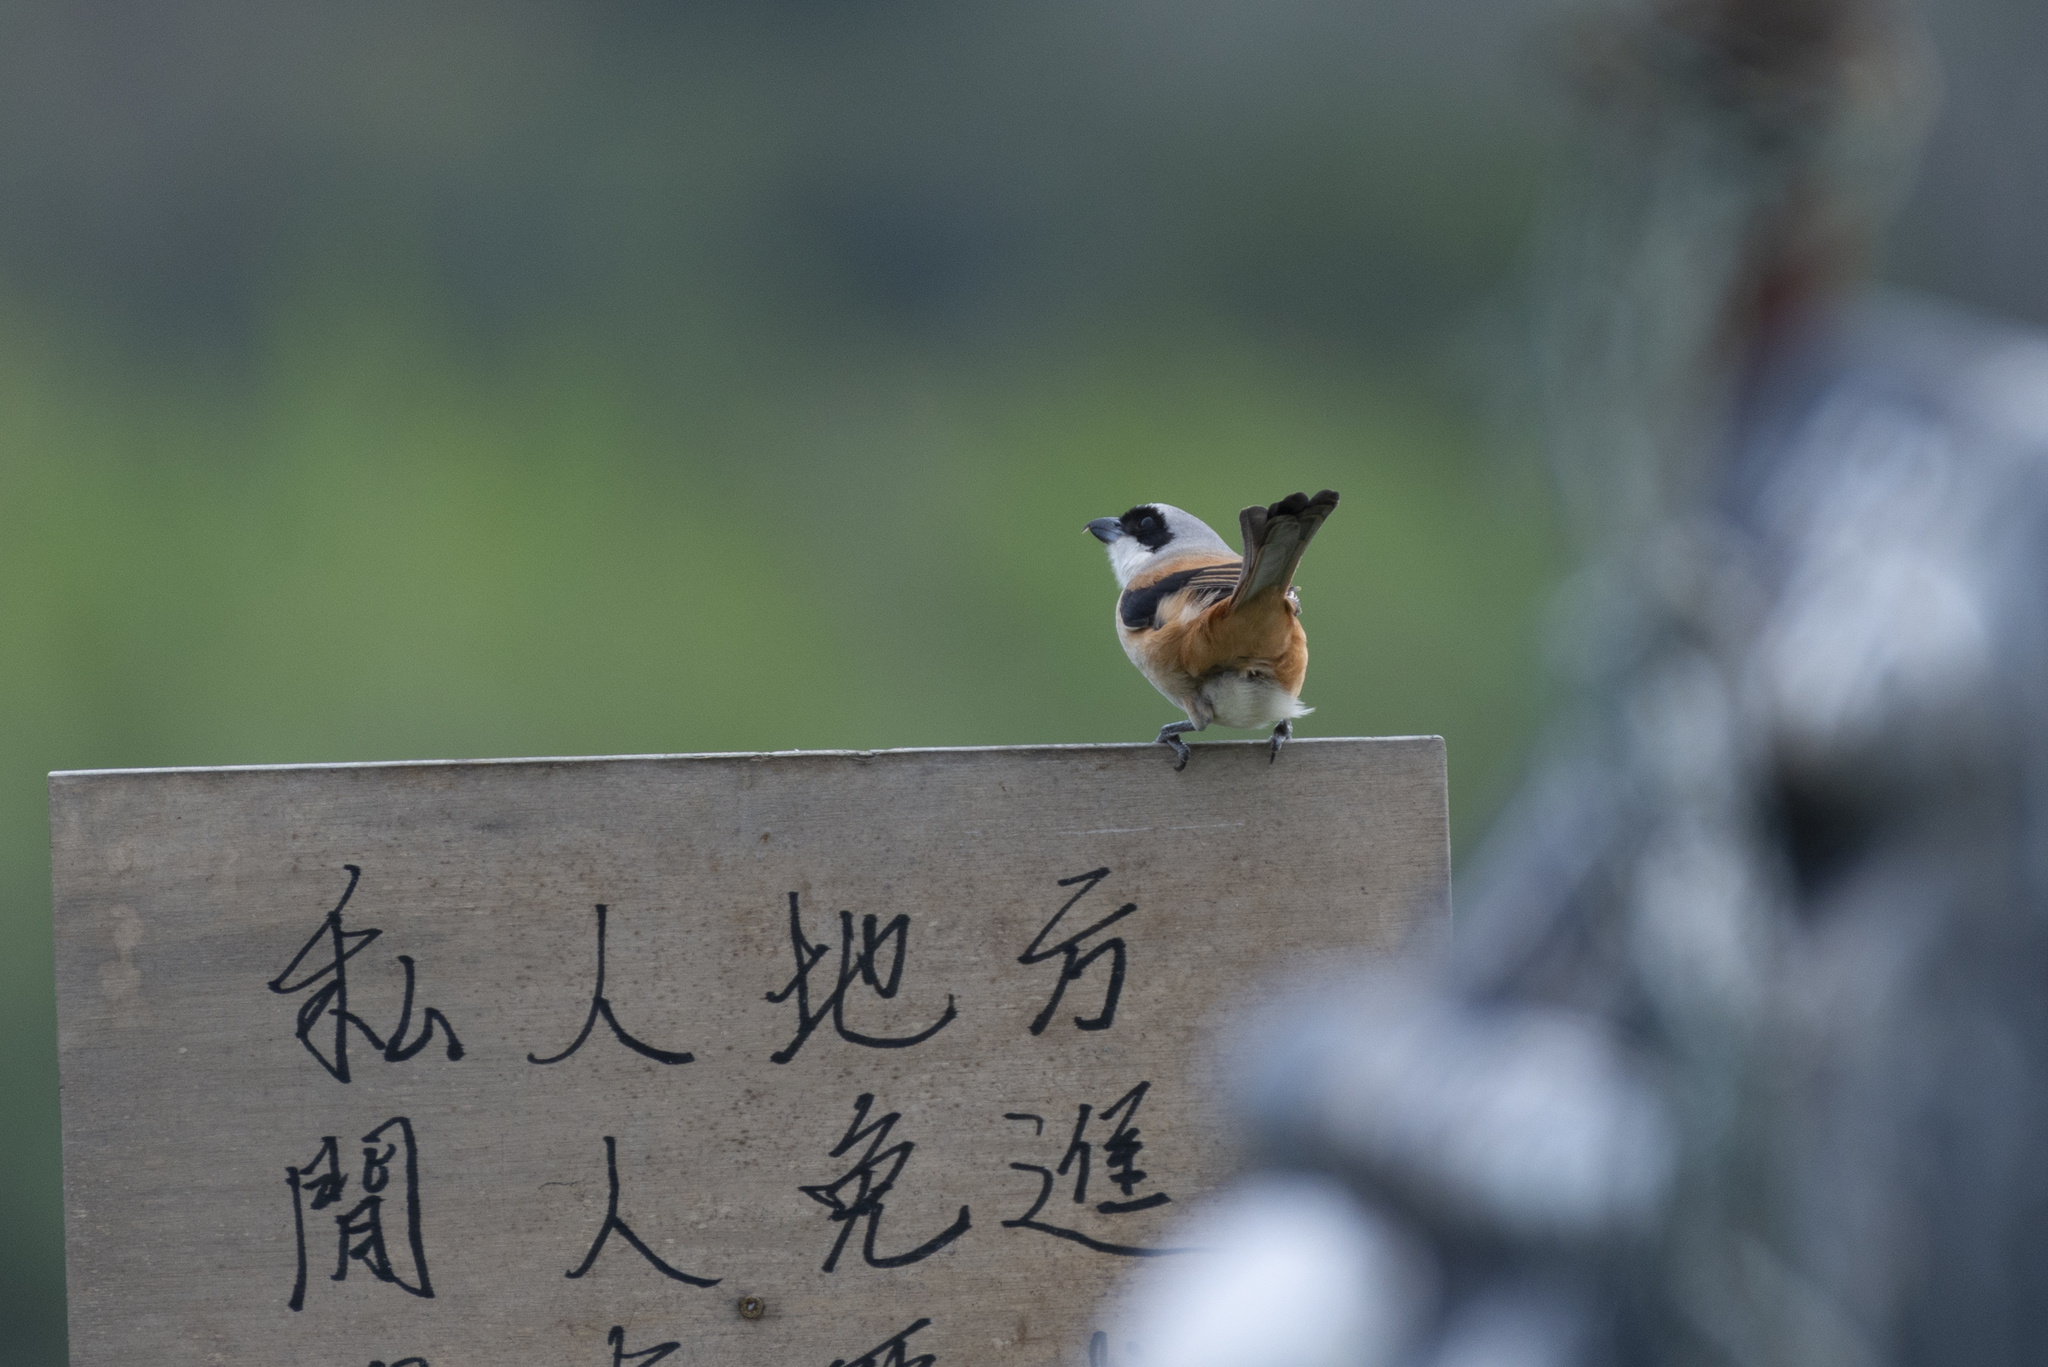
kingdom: Animalia
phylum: Chordata
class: Aves
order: Passeriformes
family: Laniidae
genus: Lanius
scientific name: Lanius schach
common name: Long-tailed shrike
